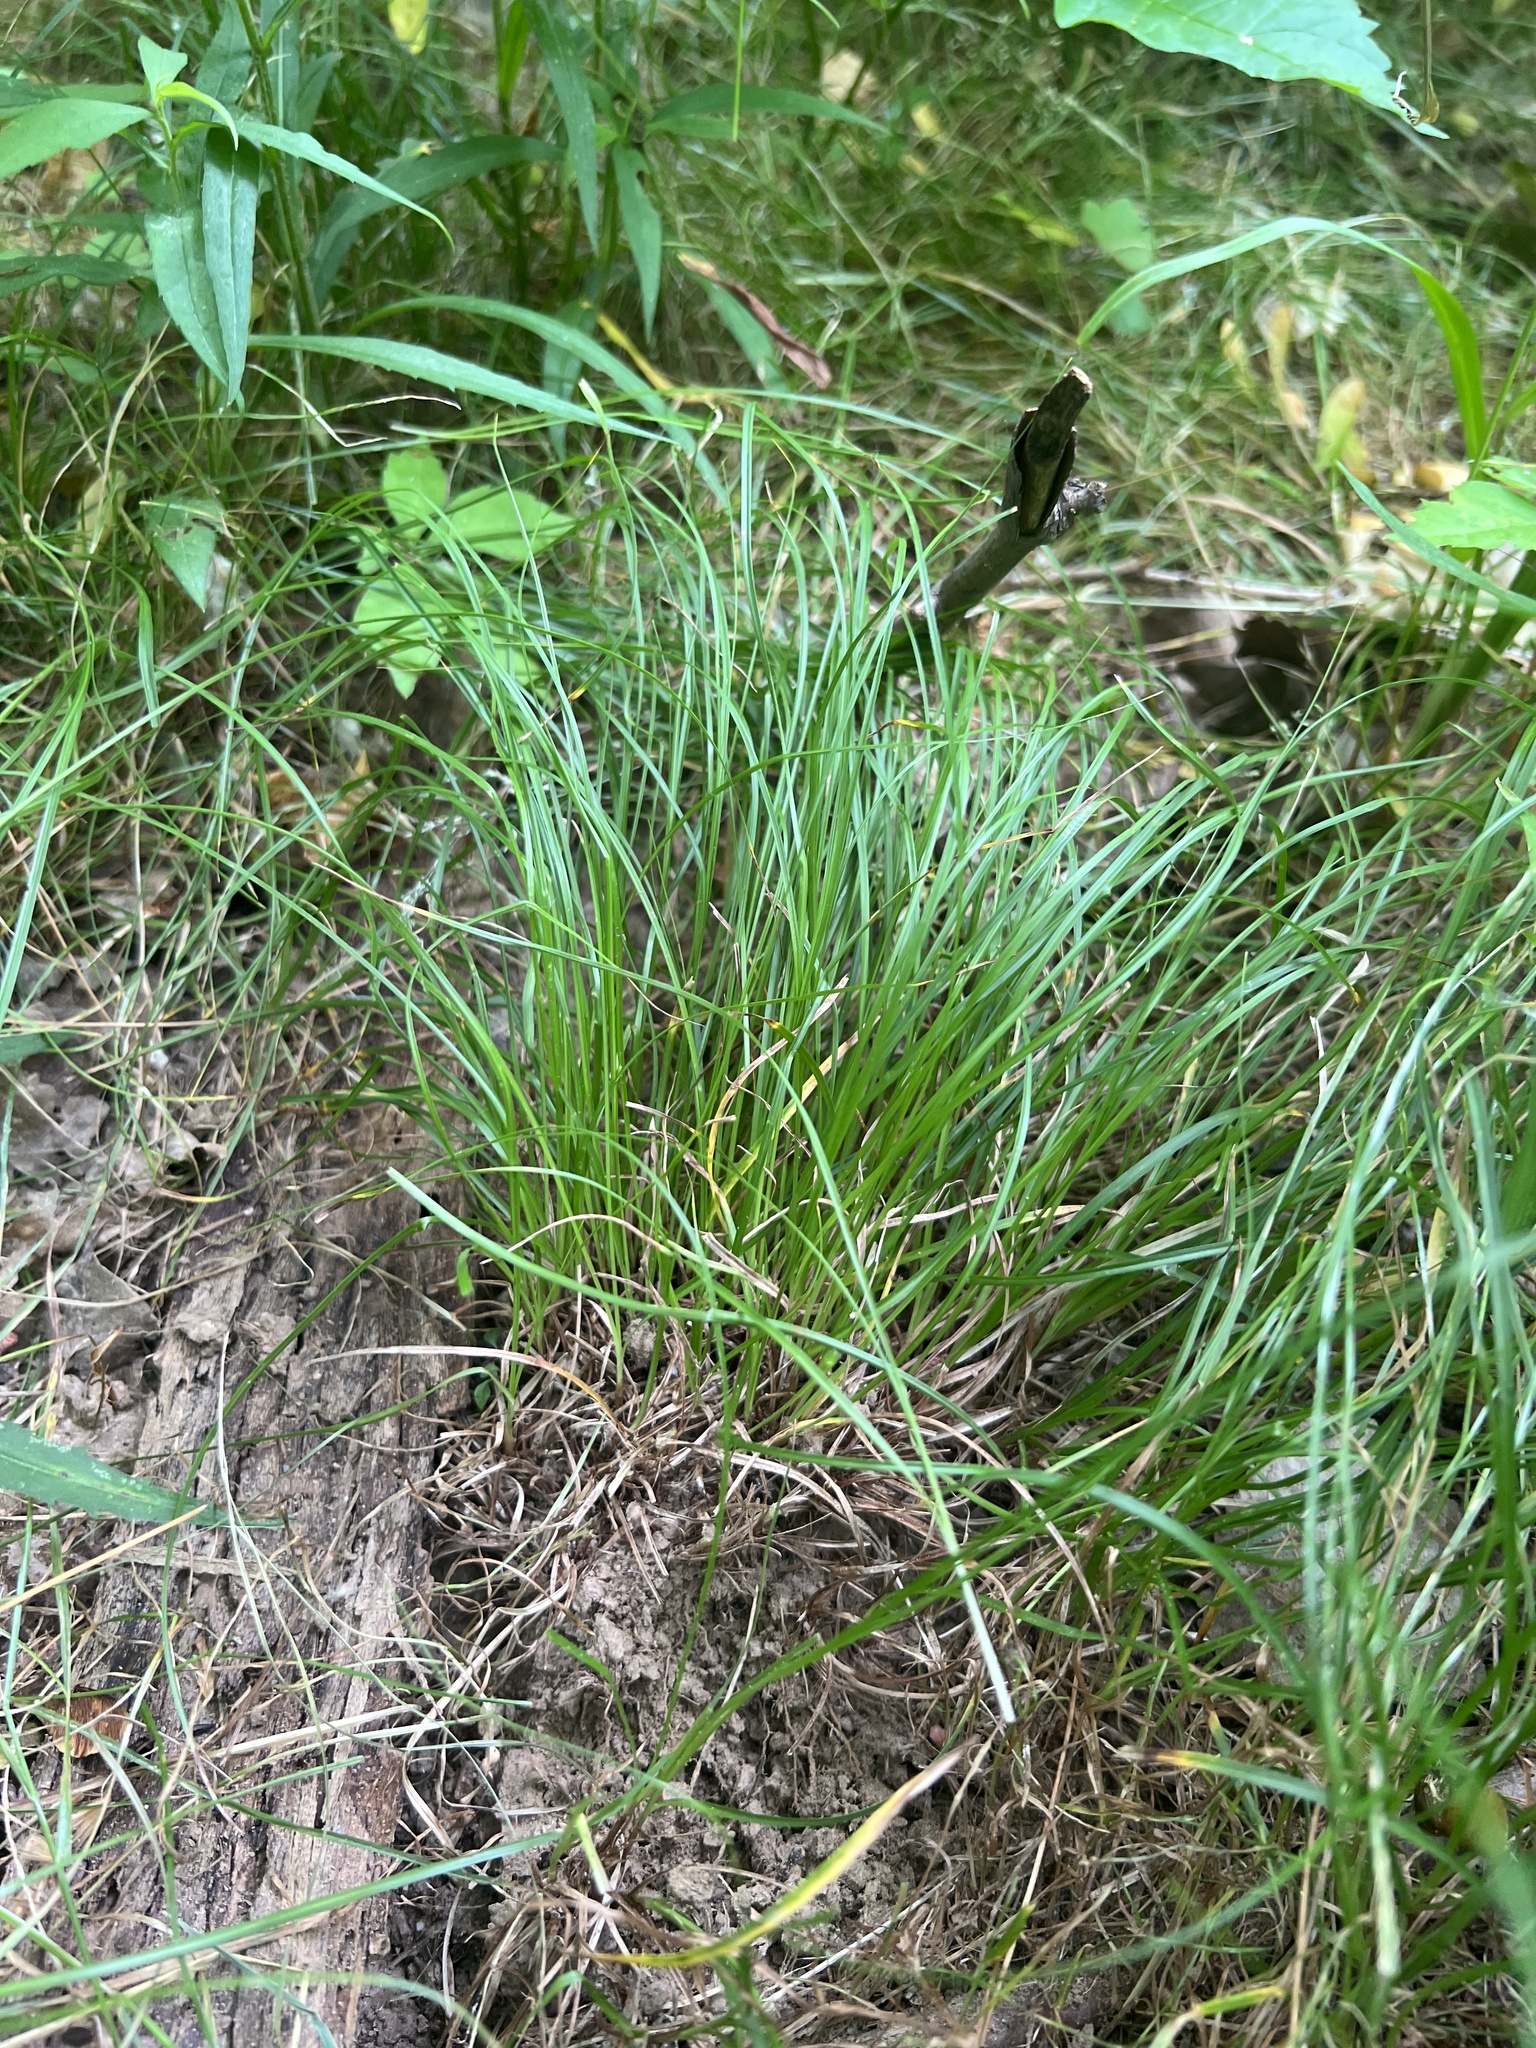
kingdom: Plantae
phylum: Tracheophyta
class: Liliopsida
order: Poales
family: Cyperaceae
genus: Carex
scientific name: Carex umbellata
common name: Early oak sedge
